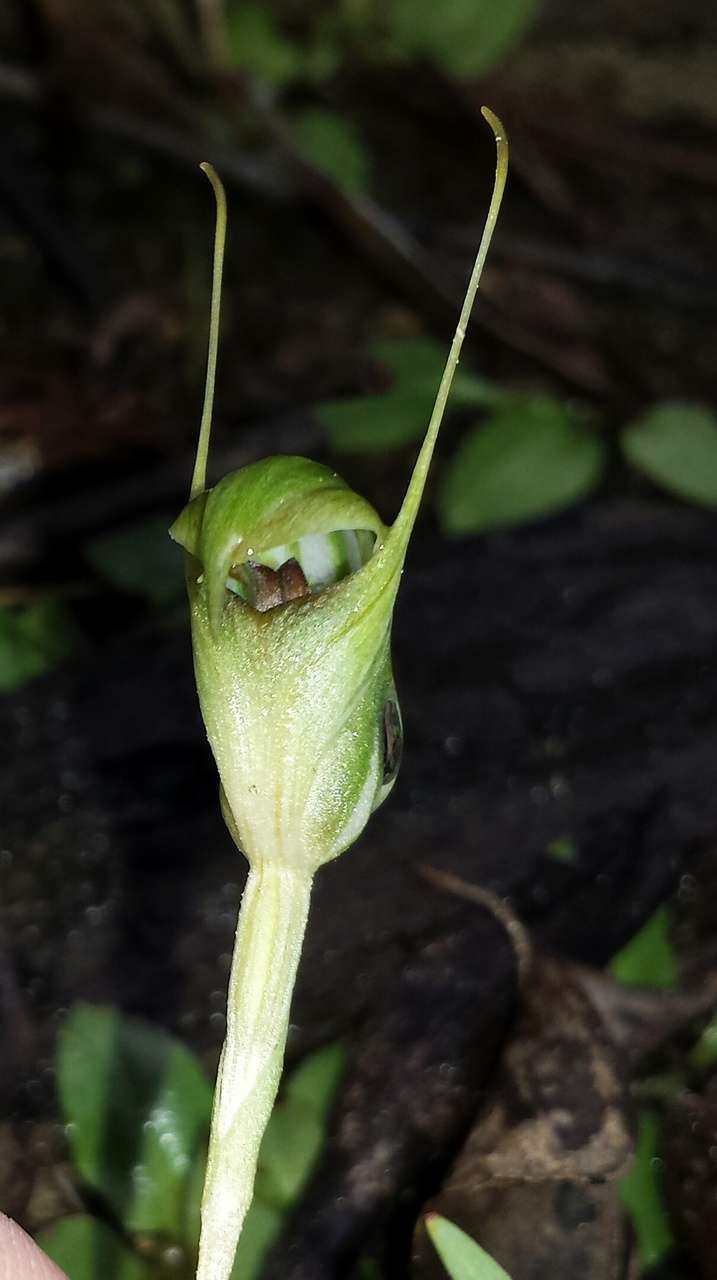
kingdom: Plantae
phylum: Tracheophyta
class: Liliopsida
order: Asparagales
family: Orchidaceae
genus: Pterostylis
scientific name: Pterostylis concinna
